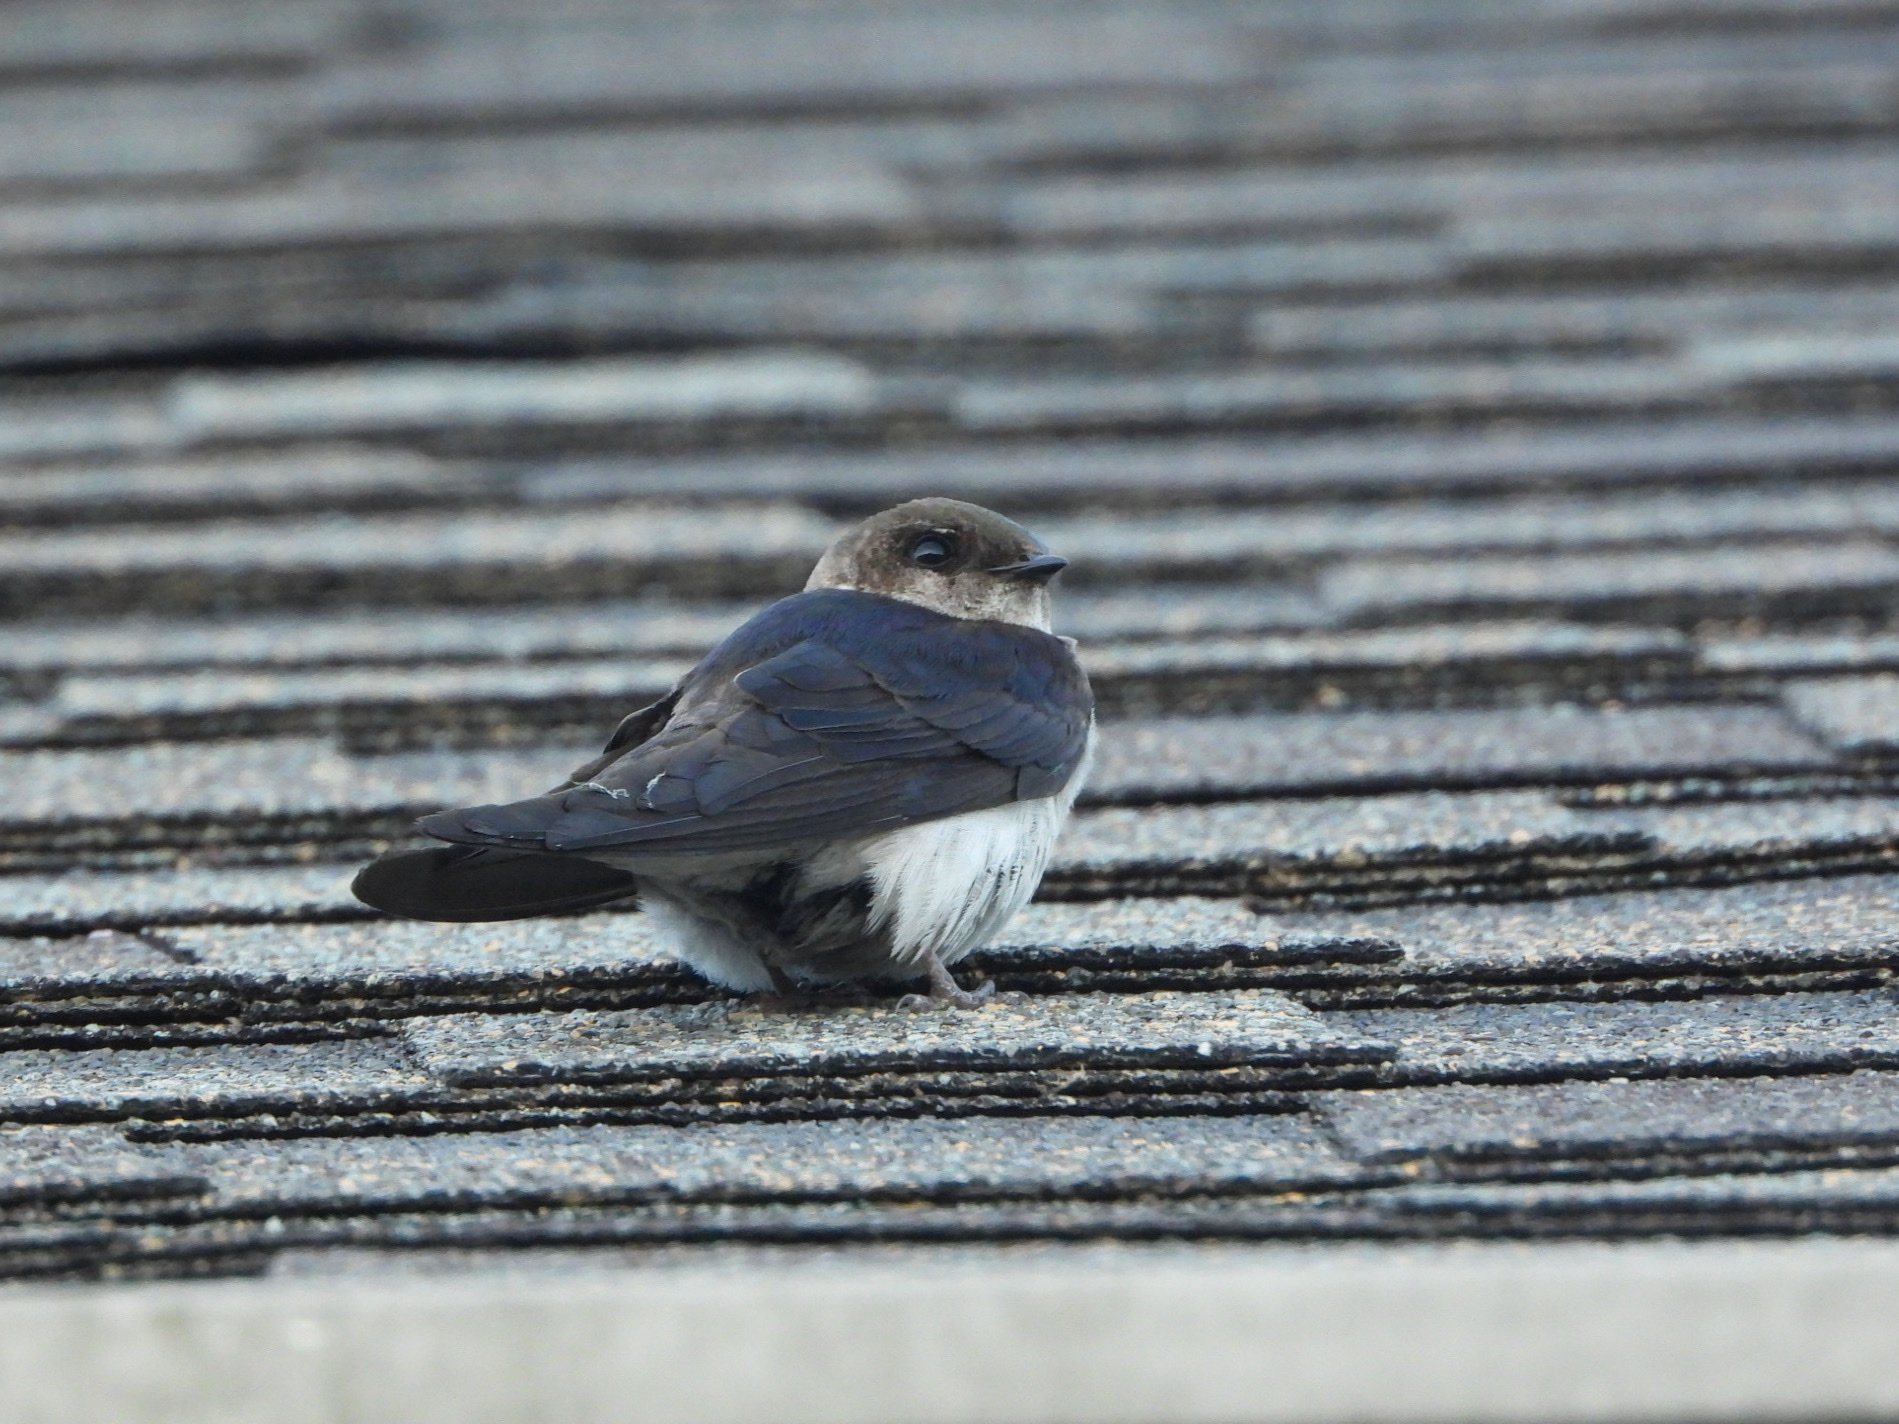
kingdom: Animalia
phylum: Chordata
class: Aves
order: Passeriformes
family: Hirundinidae
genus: Tachycineta
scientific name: Tachycineta thalassina
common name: Violet-green swallow
